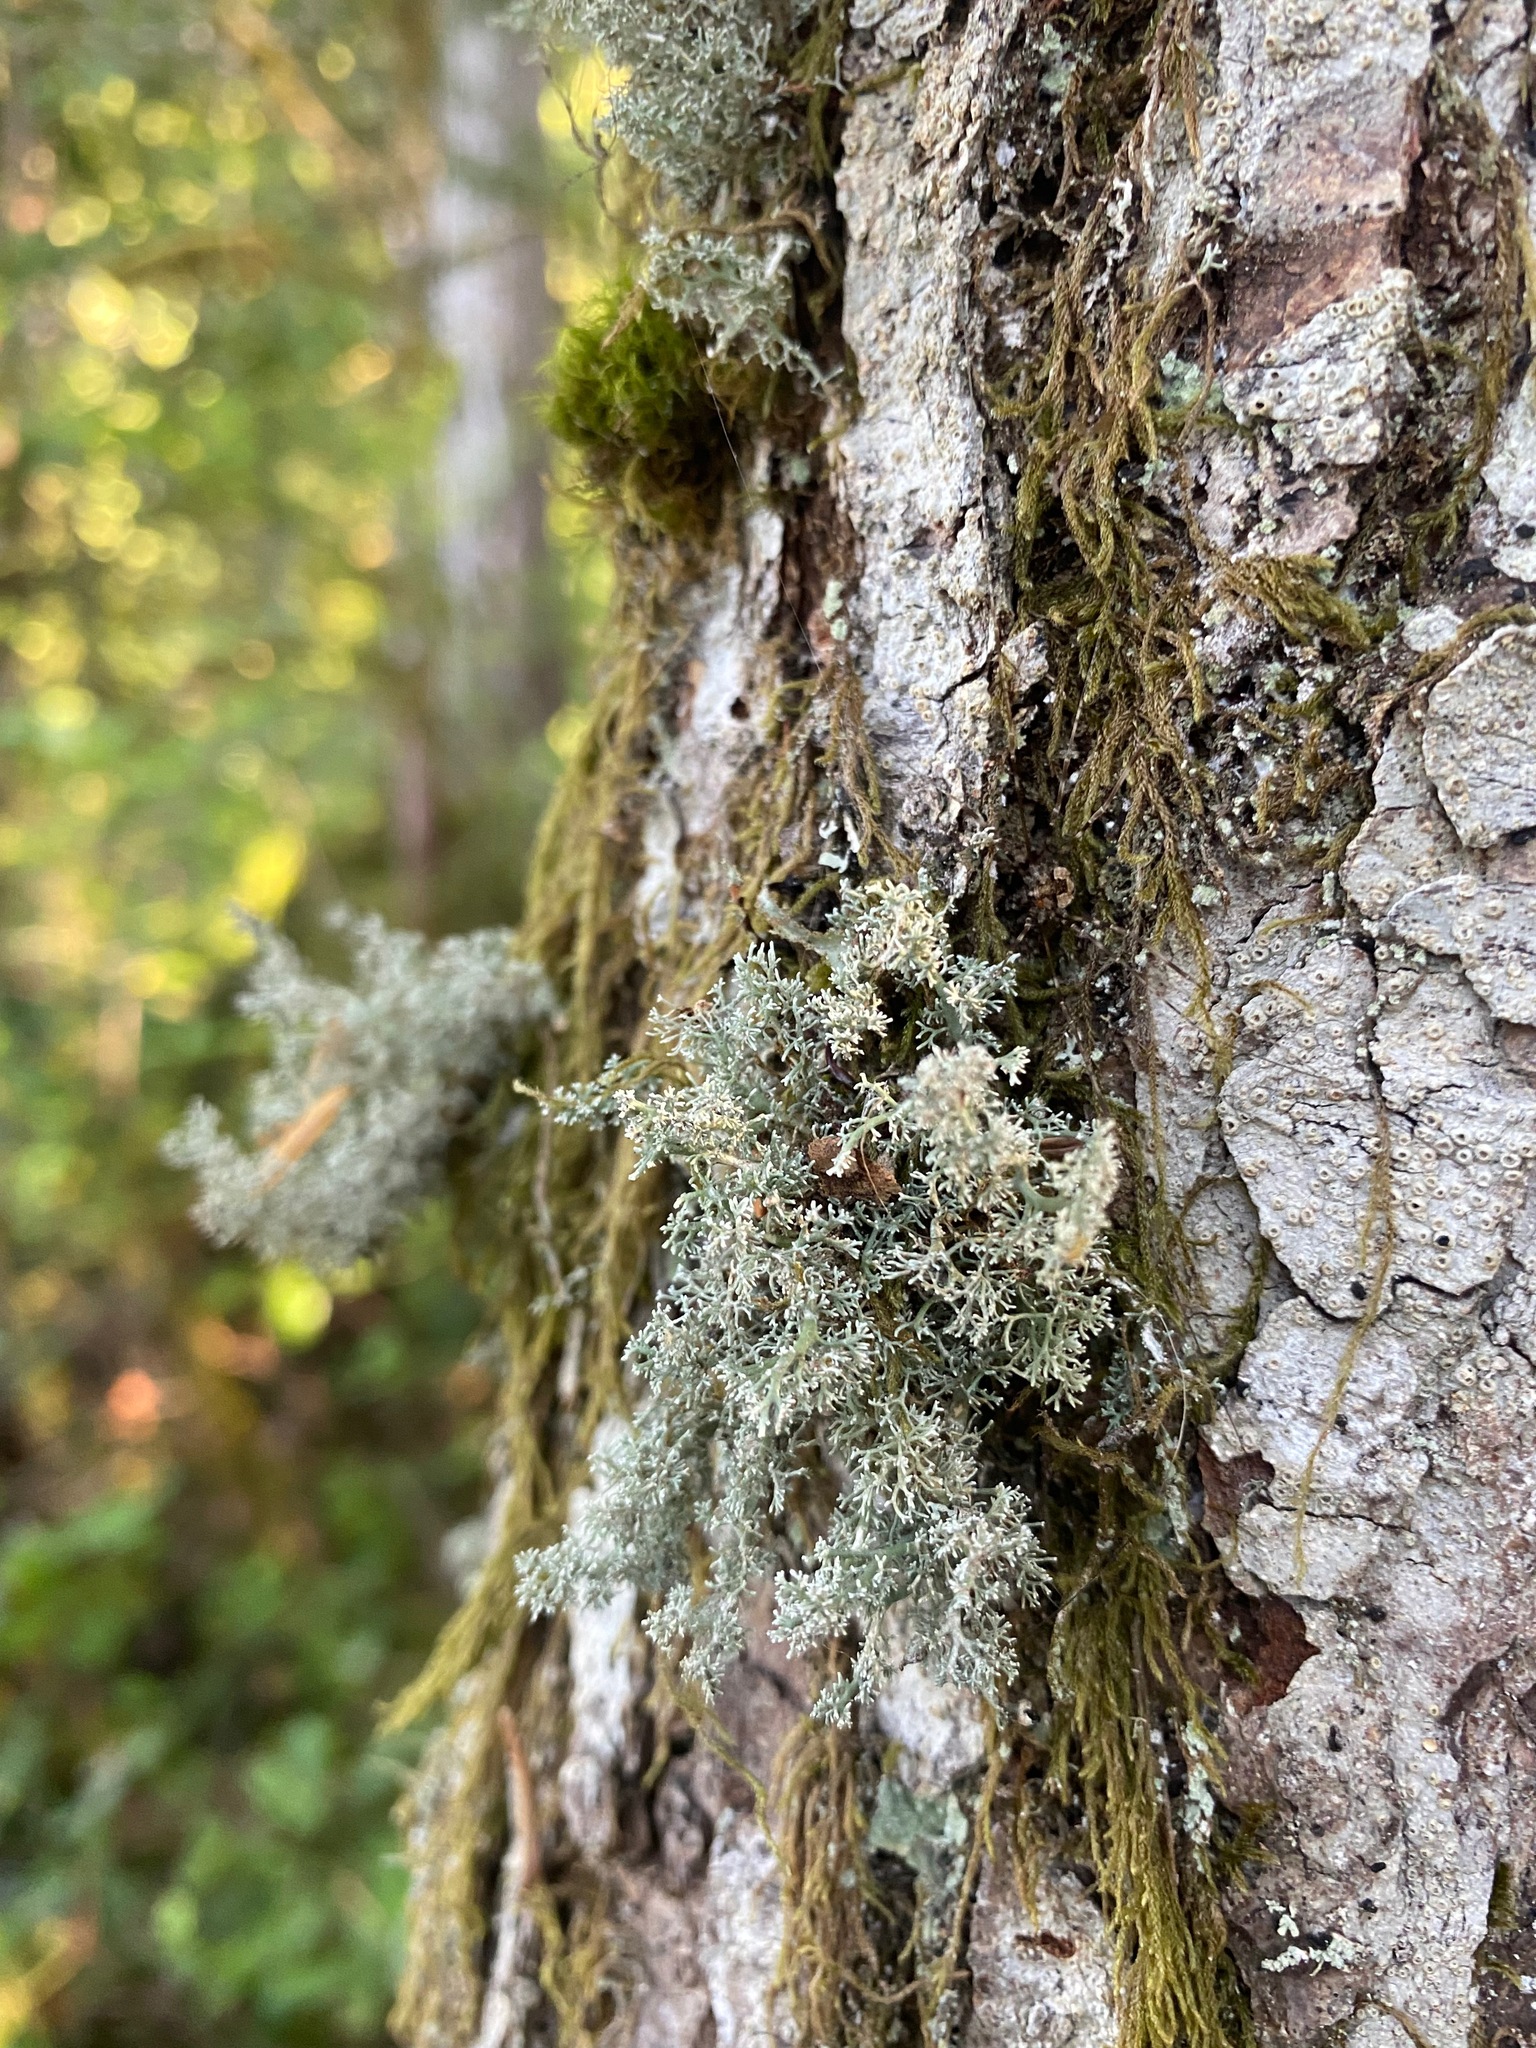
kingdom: Fungi
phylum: Ascomycota
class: Lecanoromycetes
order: Lecanorales
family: Sphaerophoraceae
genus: Sphaerophorus
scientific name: Sphaerophorus globosus
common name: Globe ball lichen
